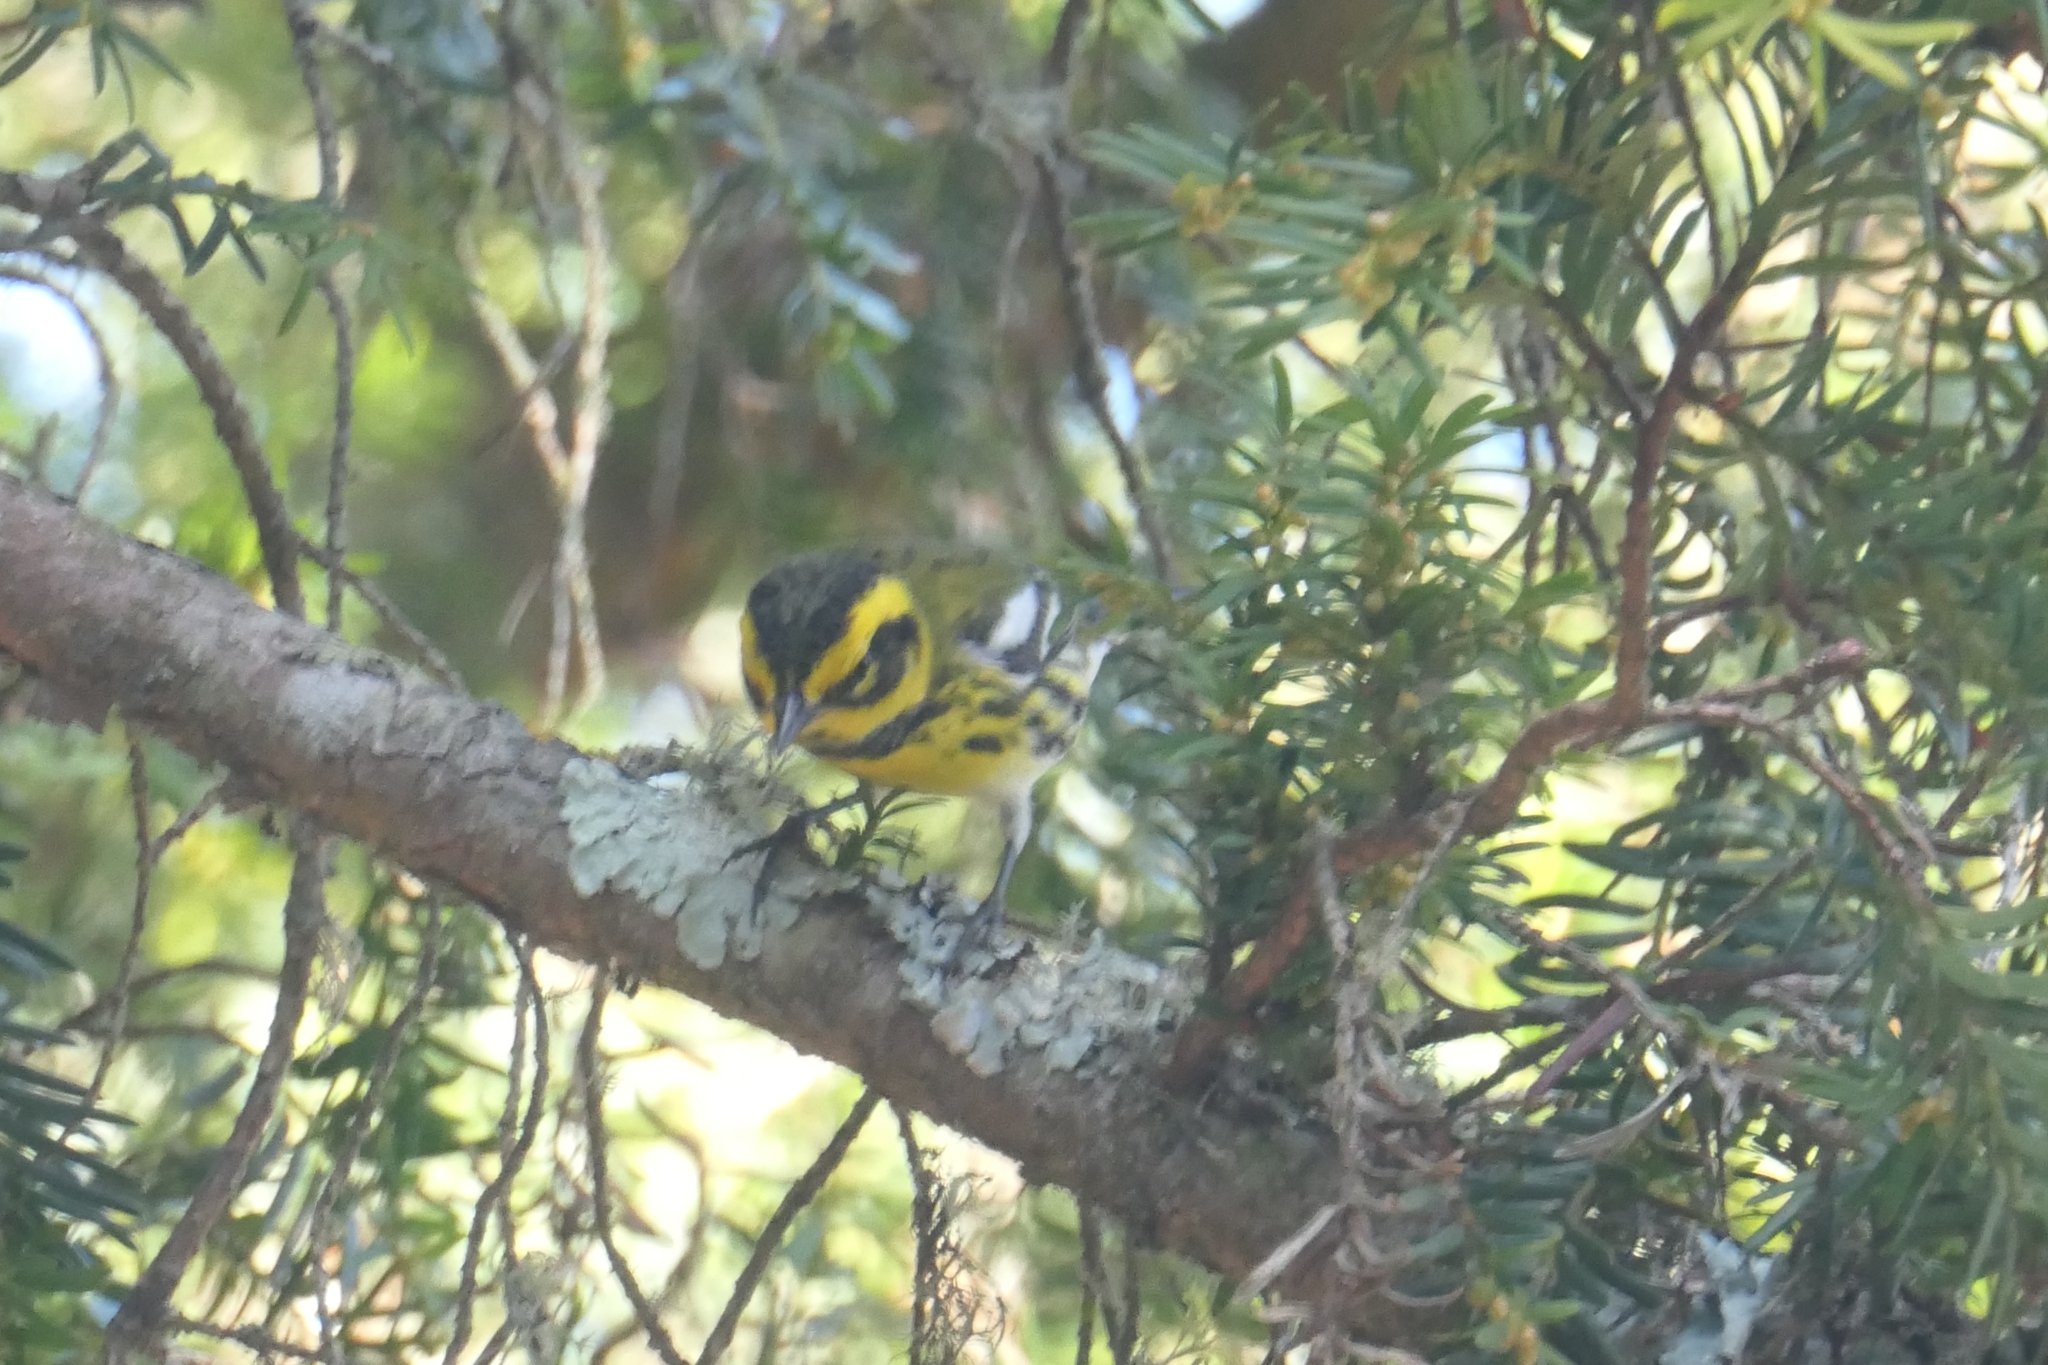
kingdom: Animalia
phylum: Chordata
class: Aves
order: Passeriformes
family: Parulidae
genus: Setophaga
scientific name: Setophaga townsendi
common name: Townsend's warbler
